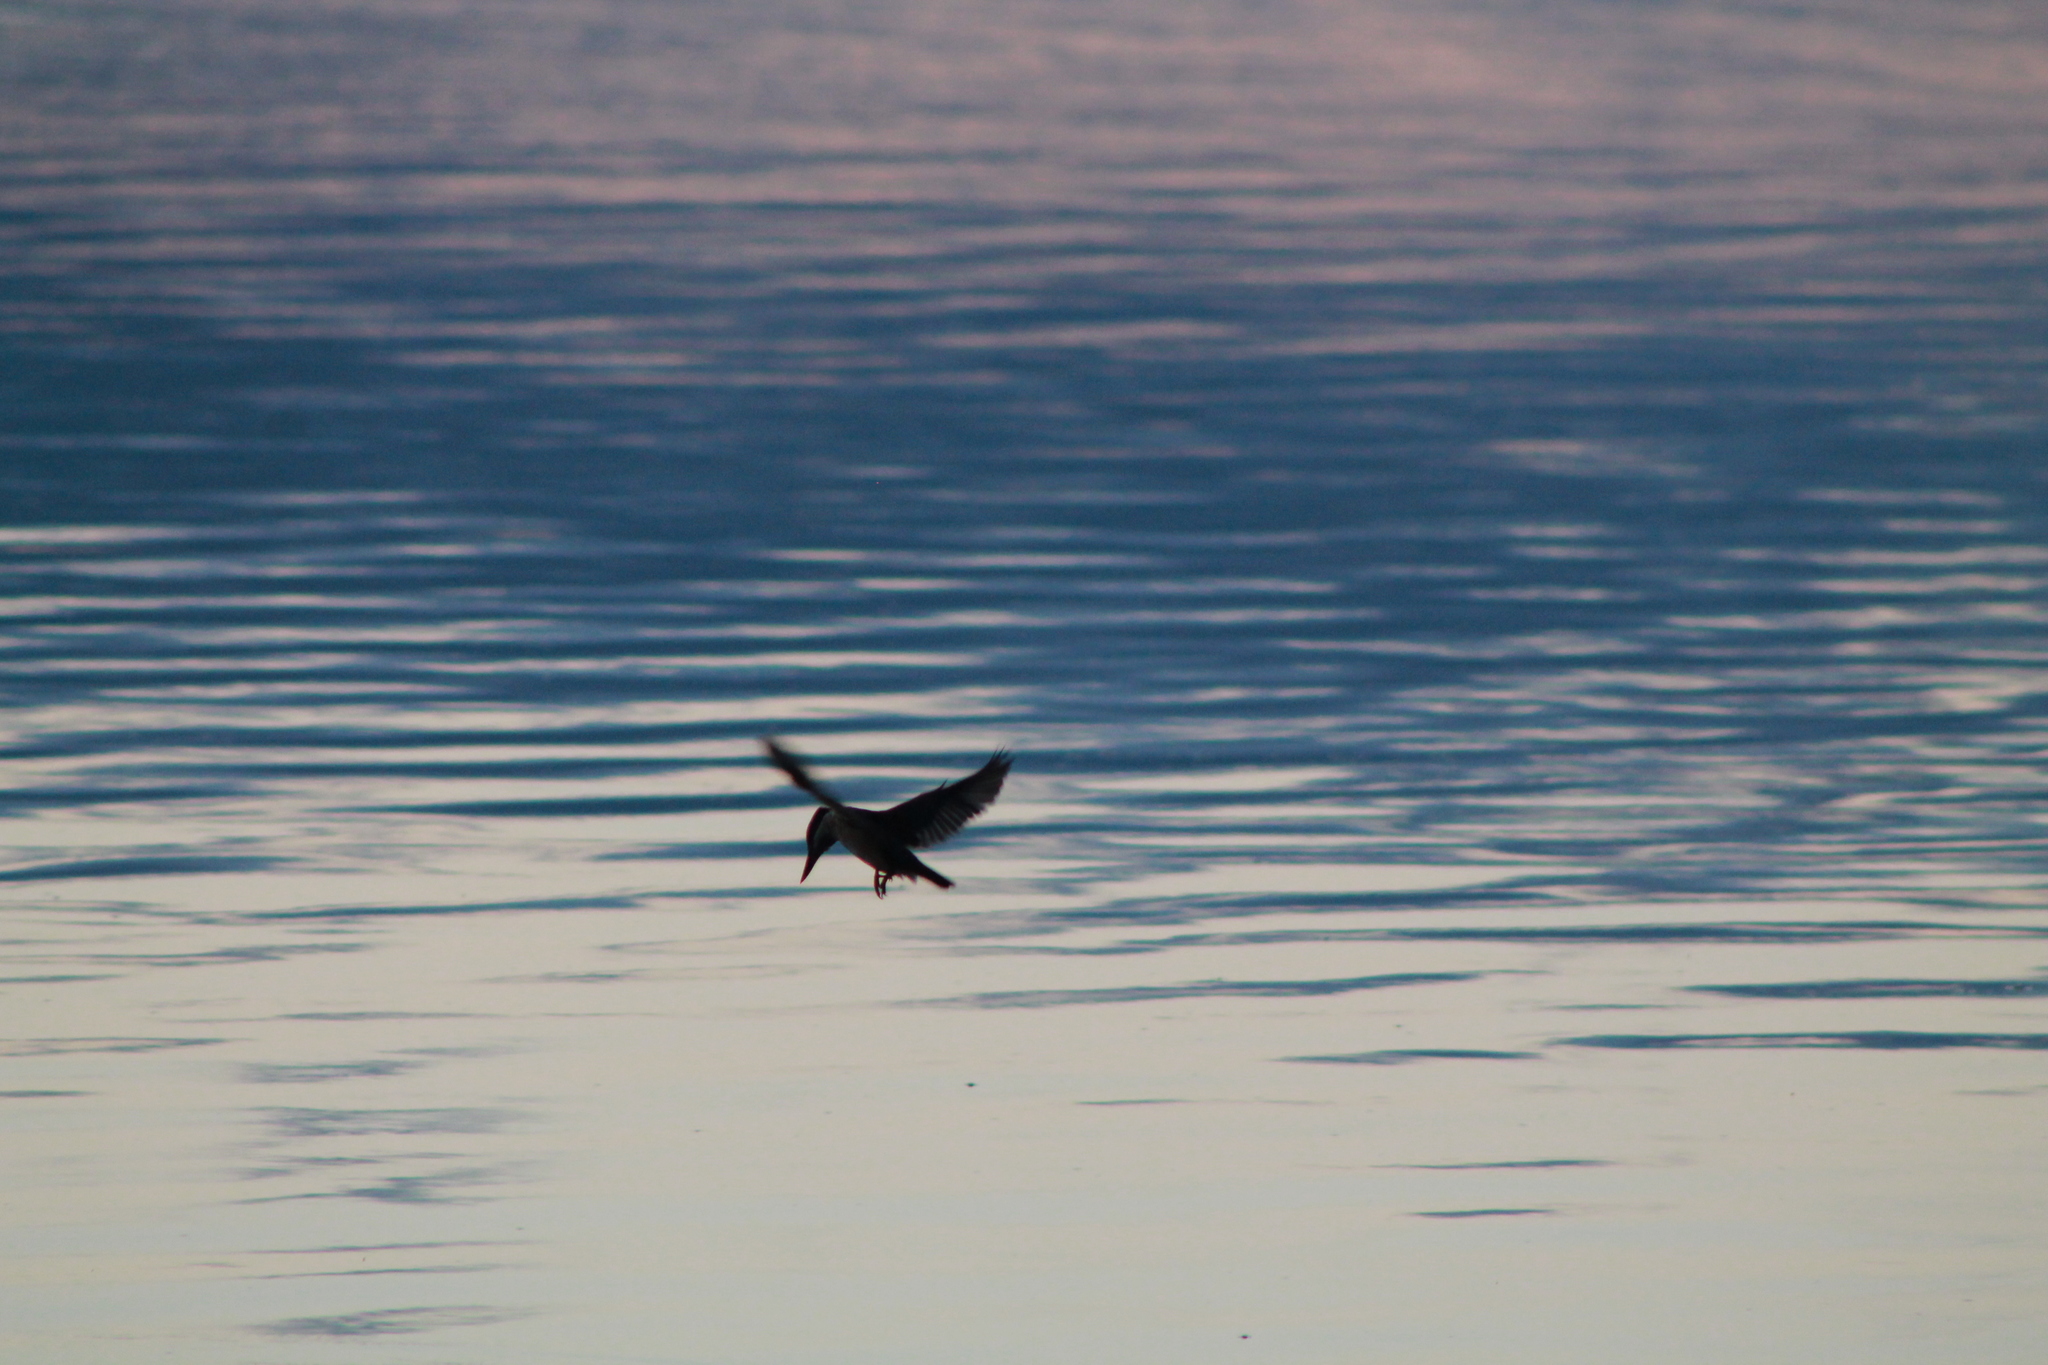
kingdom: Animalia
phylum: Chordata
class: Aves
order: Coraciiformes
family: Alcedinidae
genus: Todiramphus
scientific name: Todiramphus sanctus
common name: Sacred kingfisher
